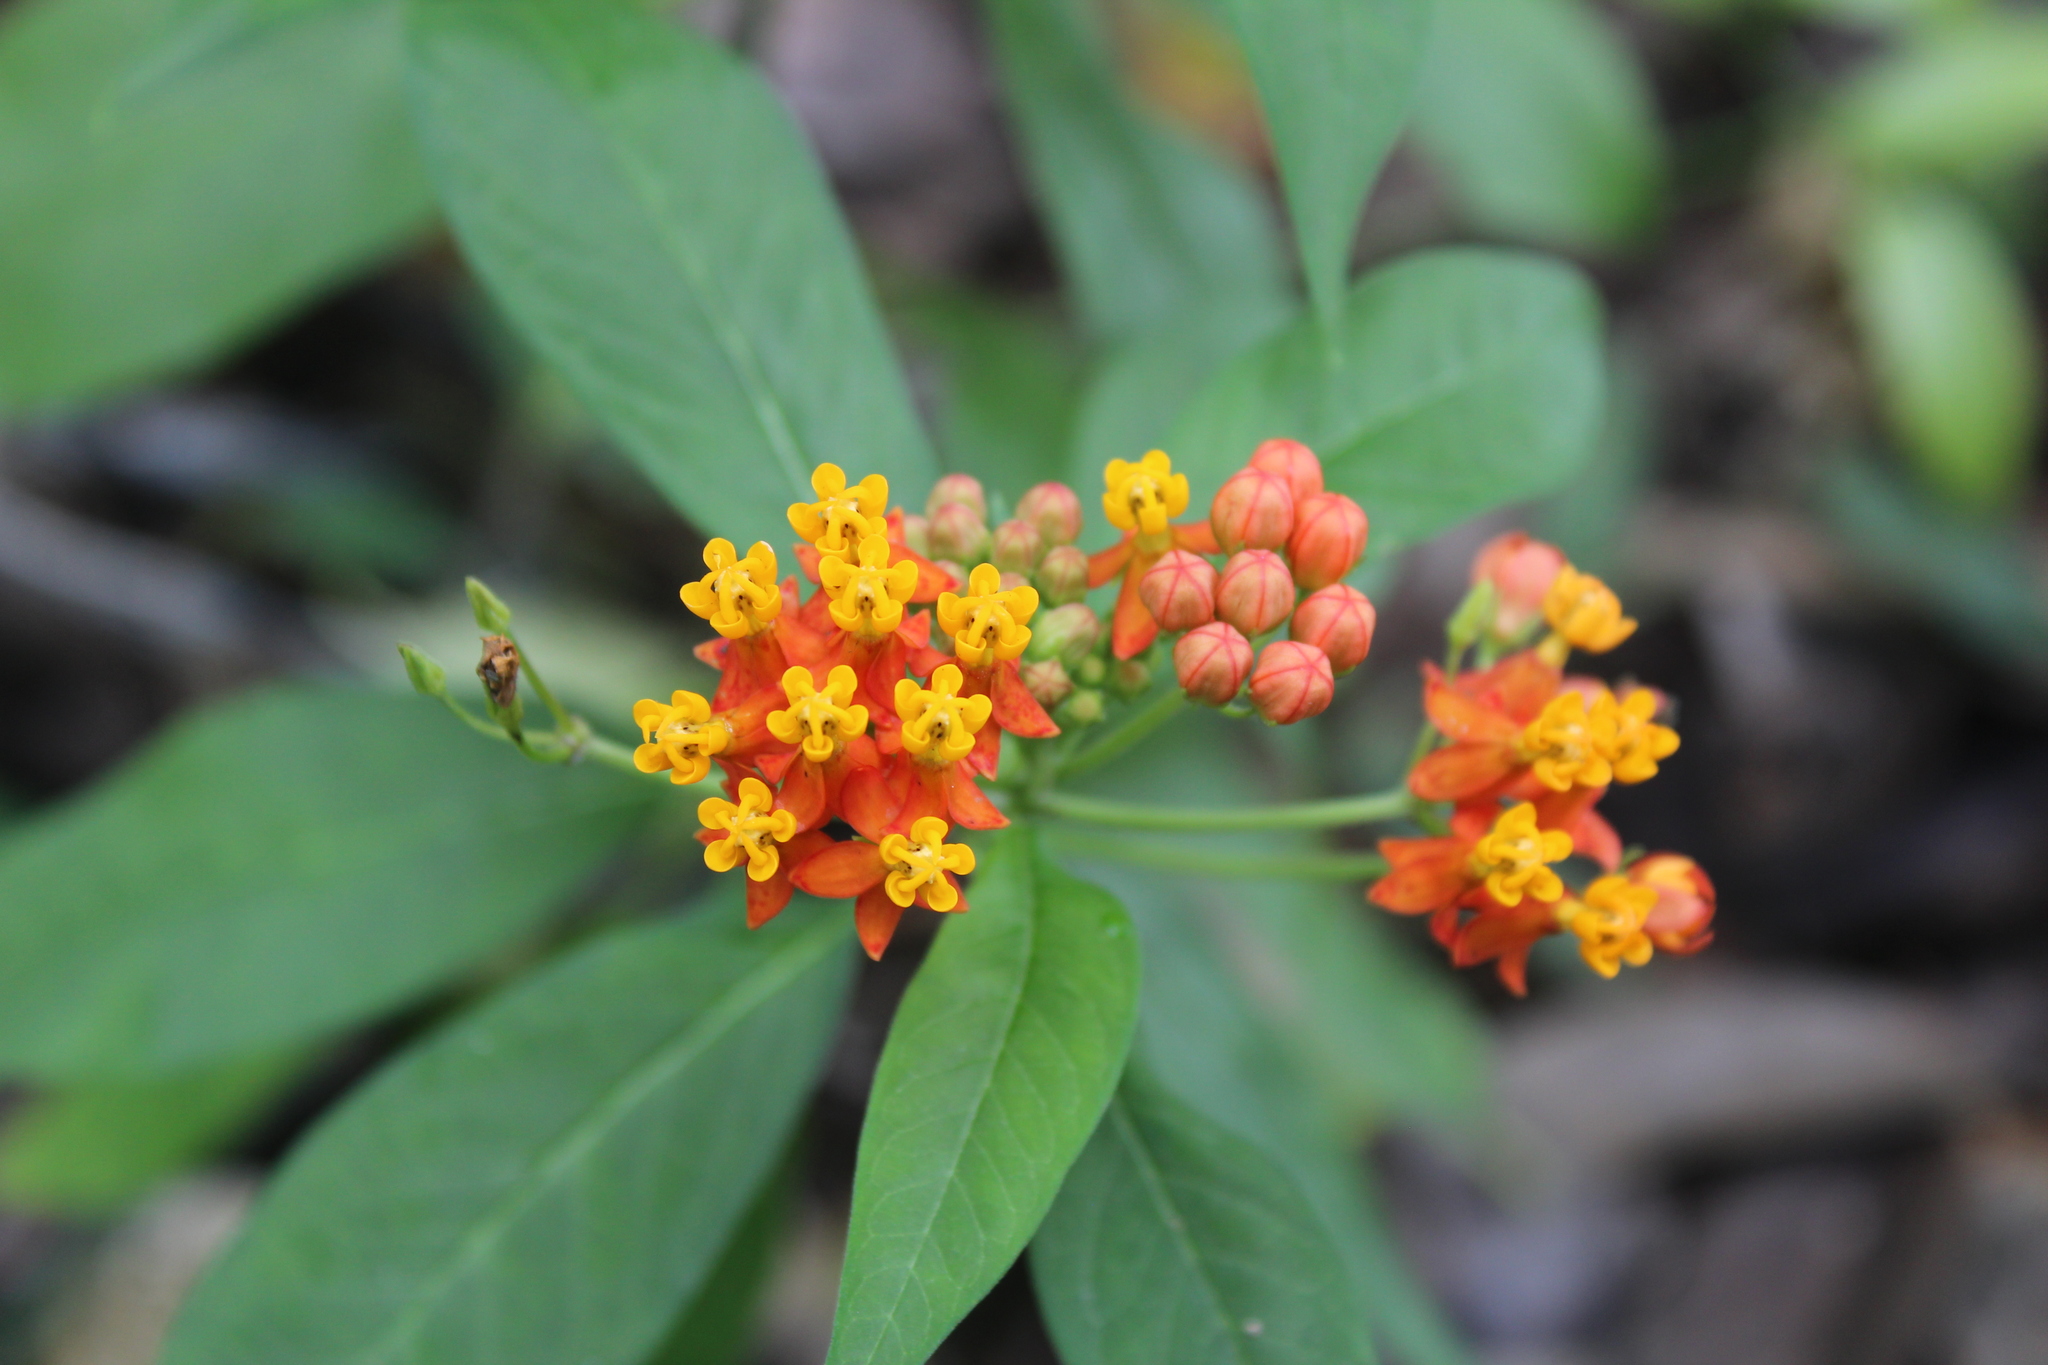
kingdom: Plantae
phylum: Tracheophyta
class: Magnoliopsida
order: Gentianales
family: Apocynaceae
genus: Asclepias
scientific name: Asclepias curassavica
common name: Bloodflower
